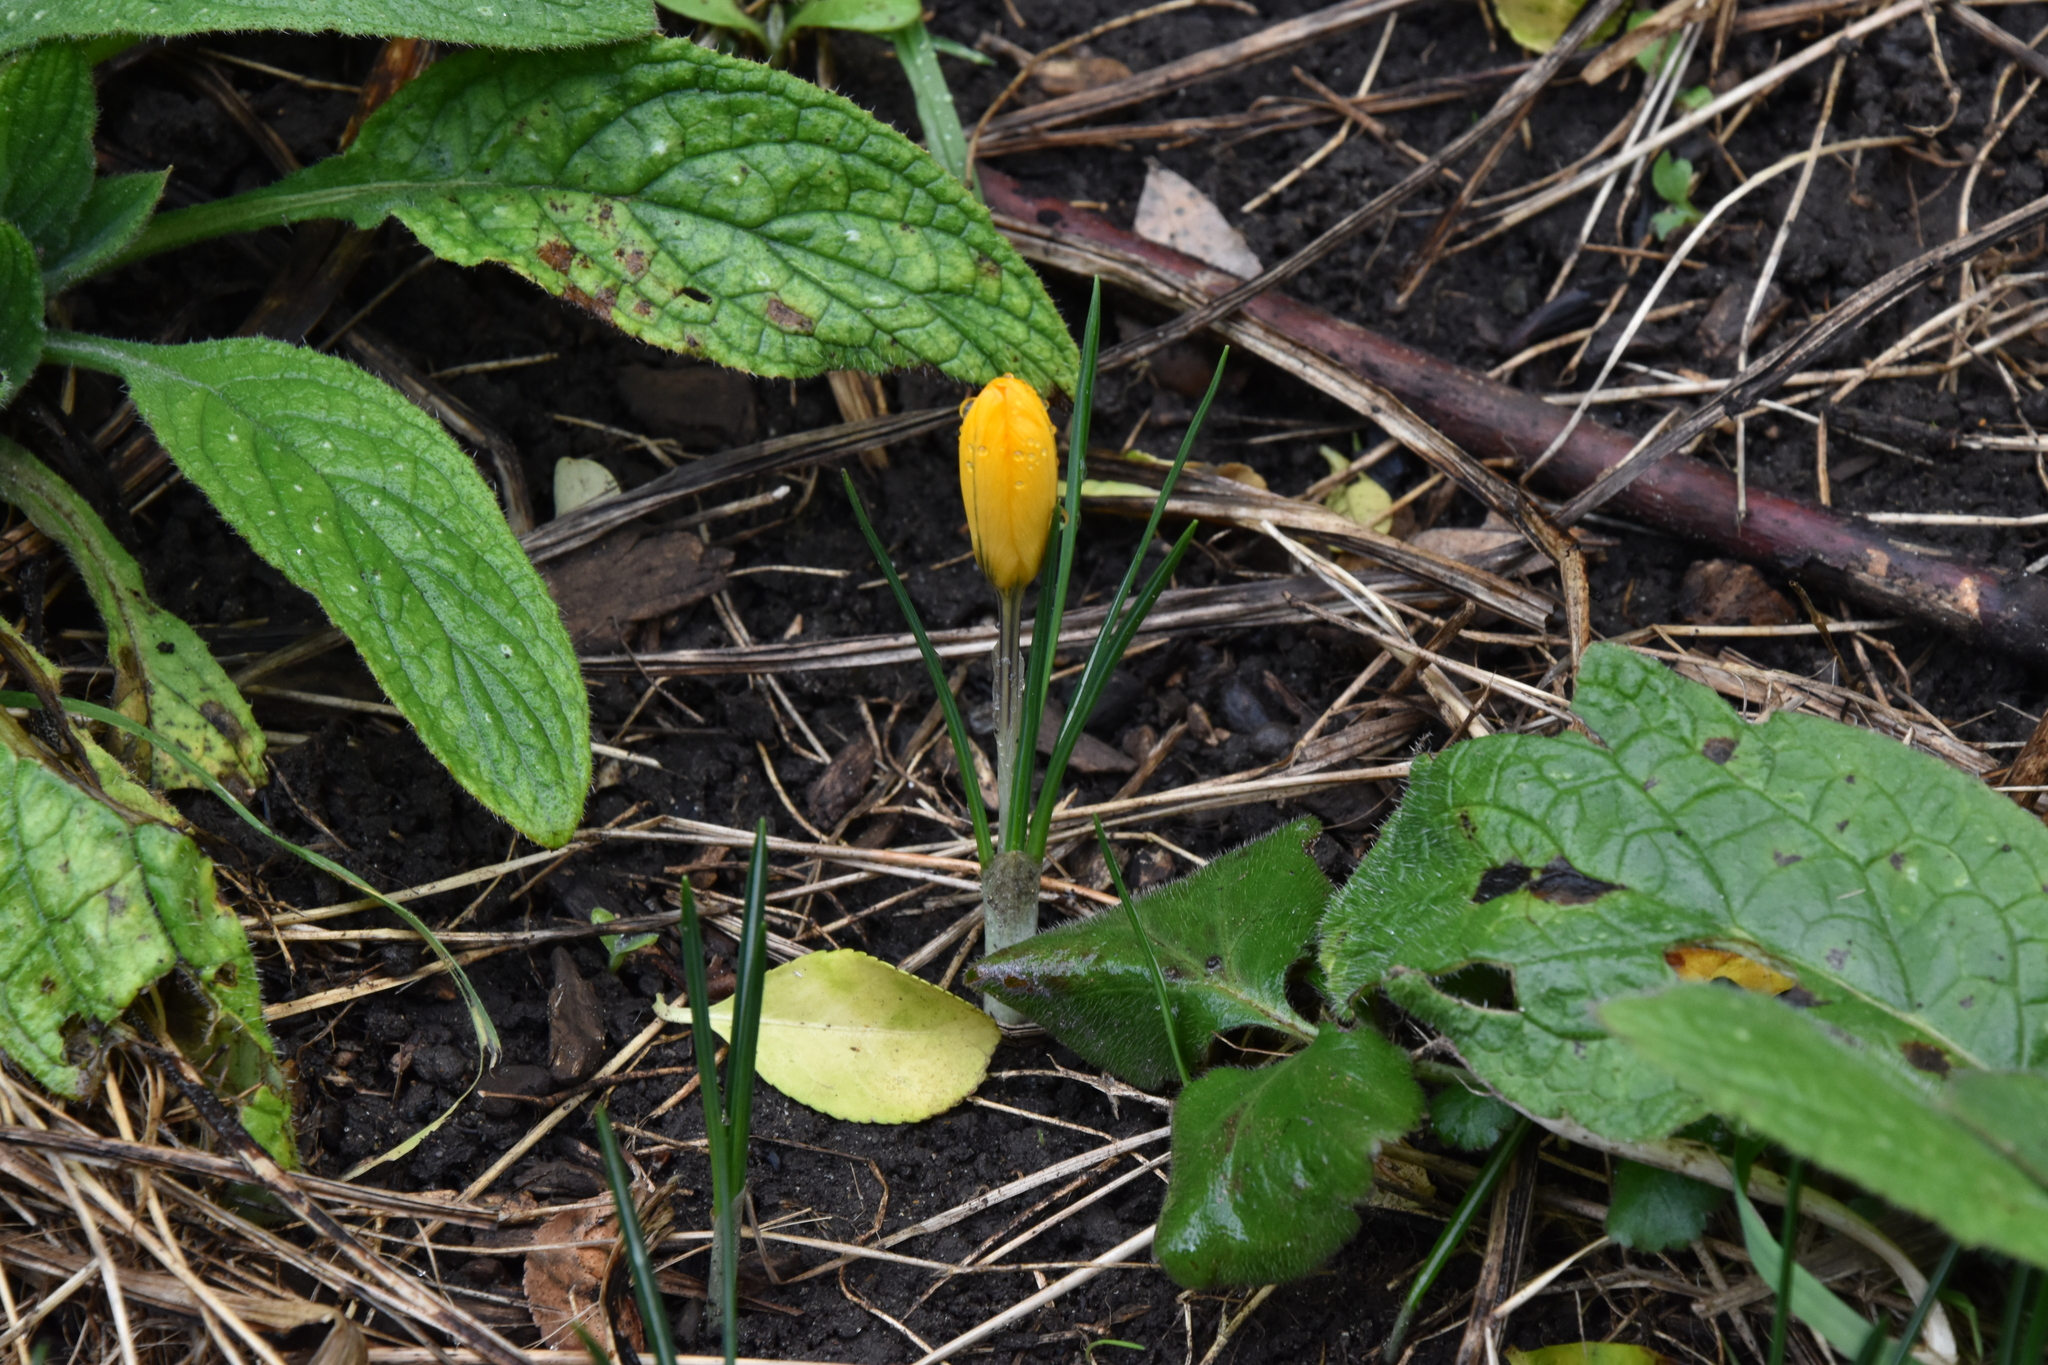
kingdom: Plantae
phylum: Tracheophyta
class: Liliopsida
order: Asparagales
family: Iridaceae
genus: Crocus
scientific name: Crocus luteus
